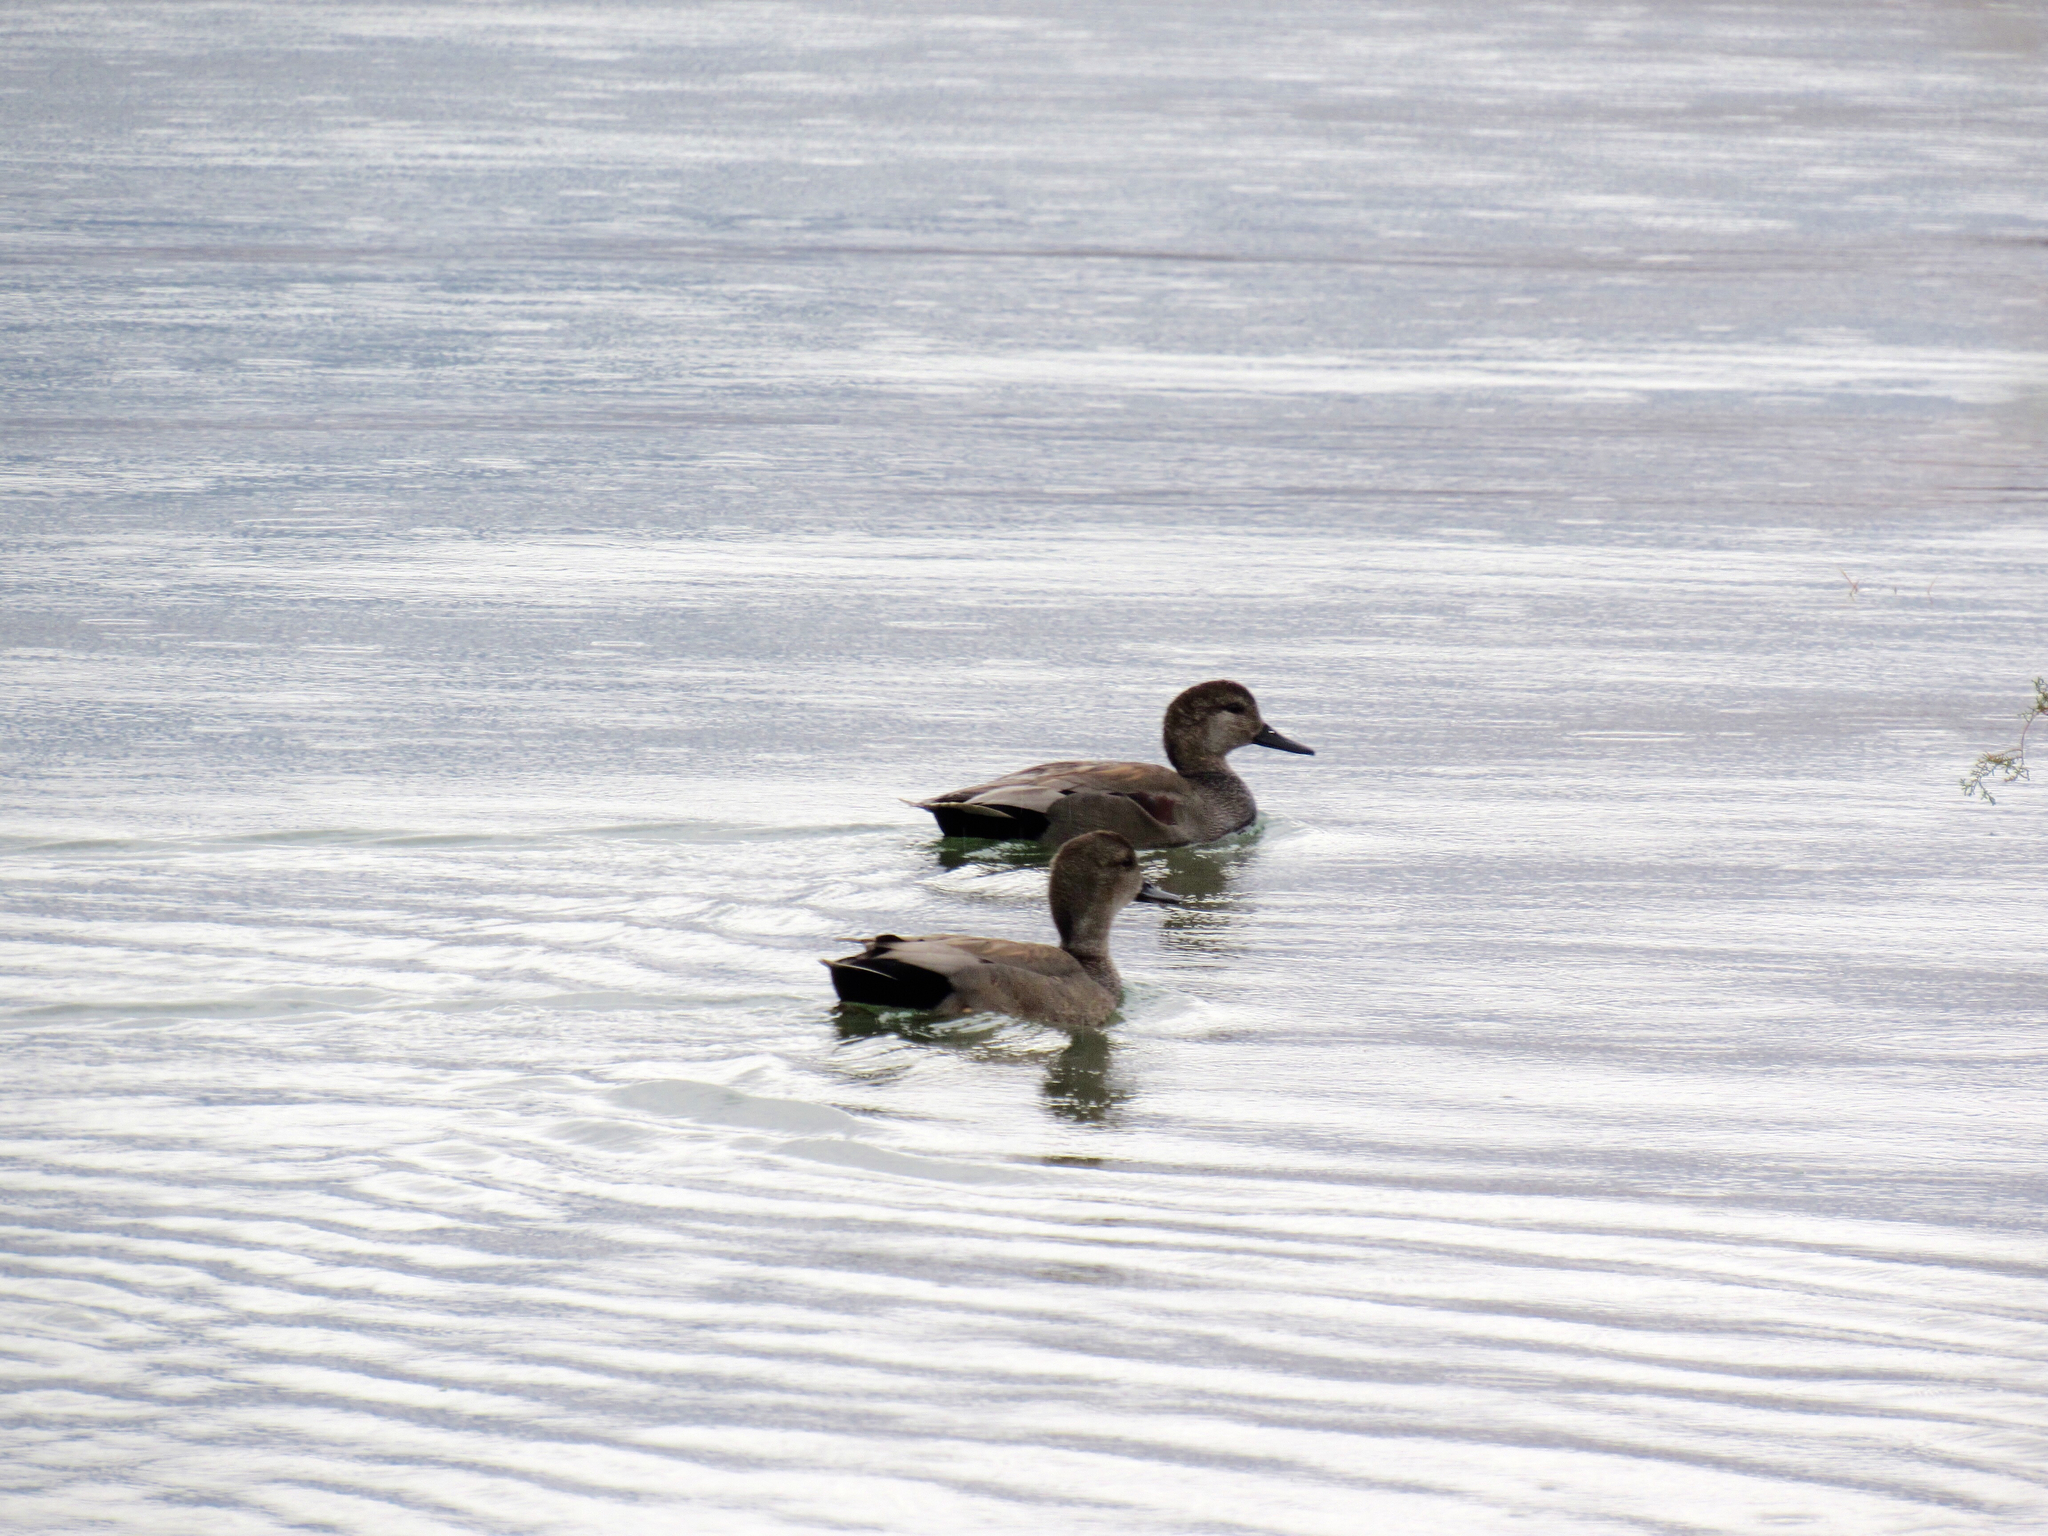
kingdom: Animalia
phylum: Chordata
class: Aves
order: Anseriformes
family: Anatidae
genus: Mareca
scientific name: Mareca strepera
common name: Gadwall
